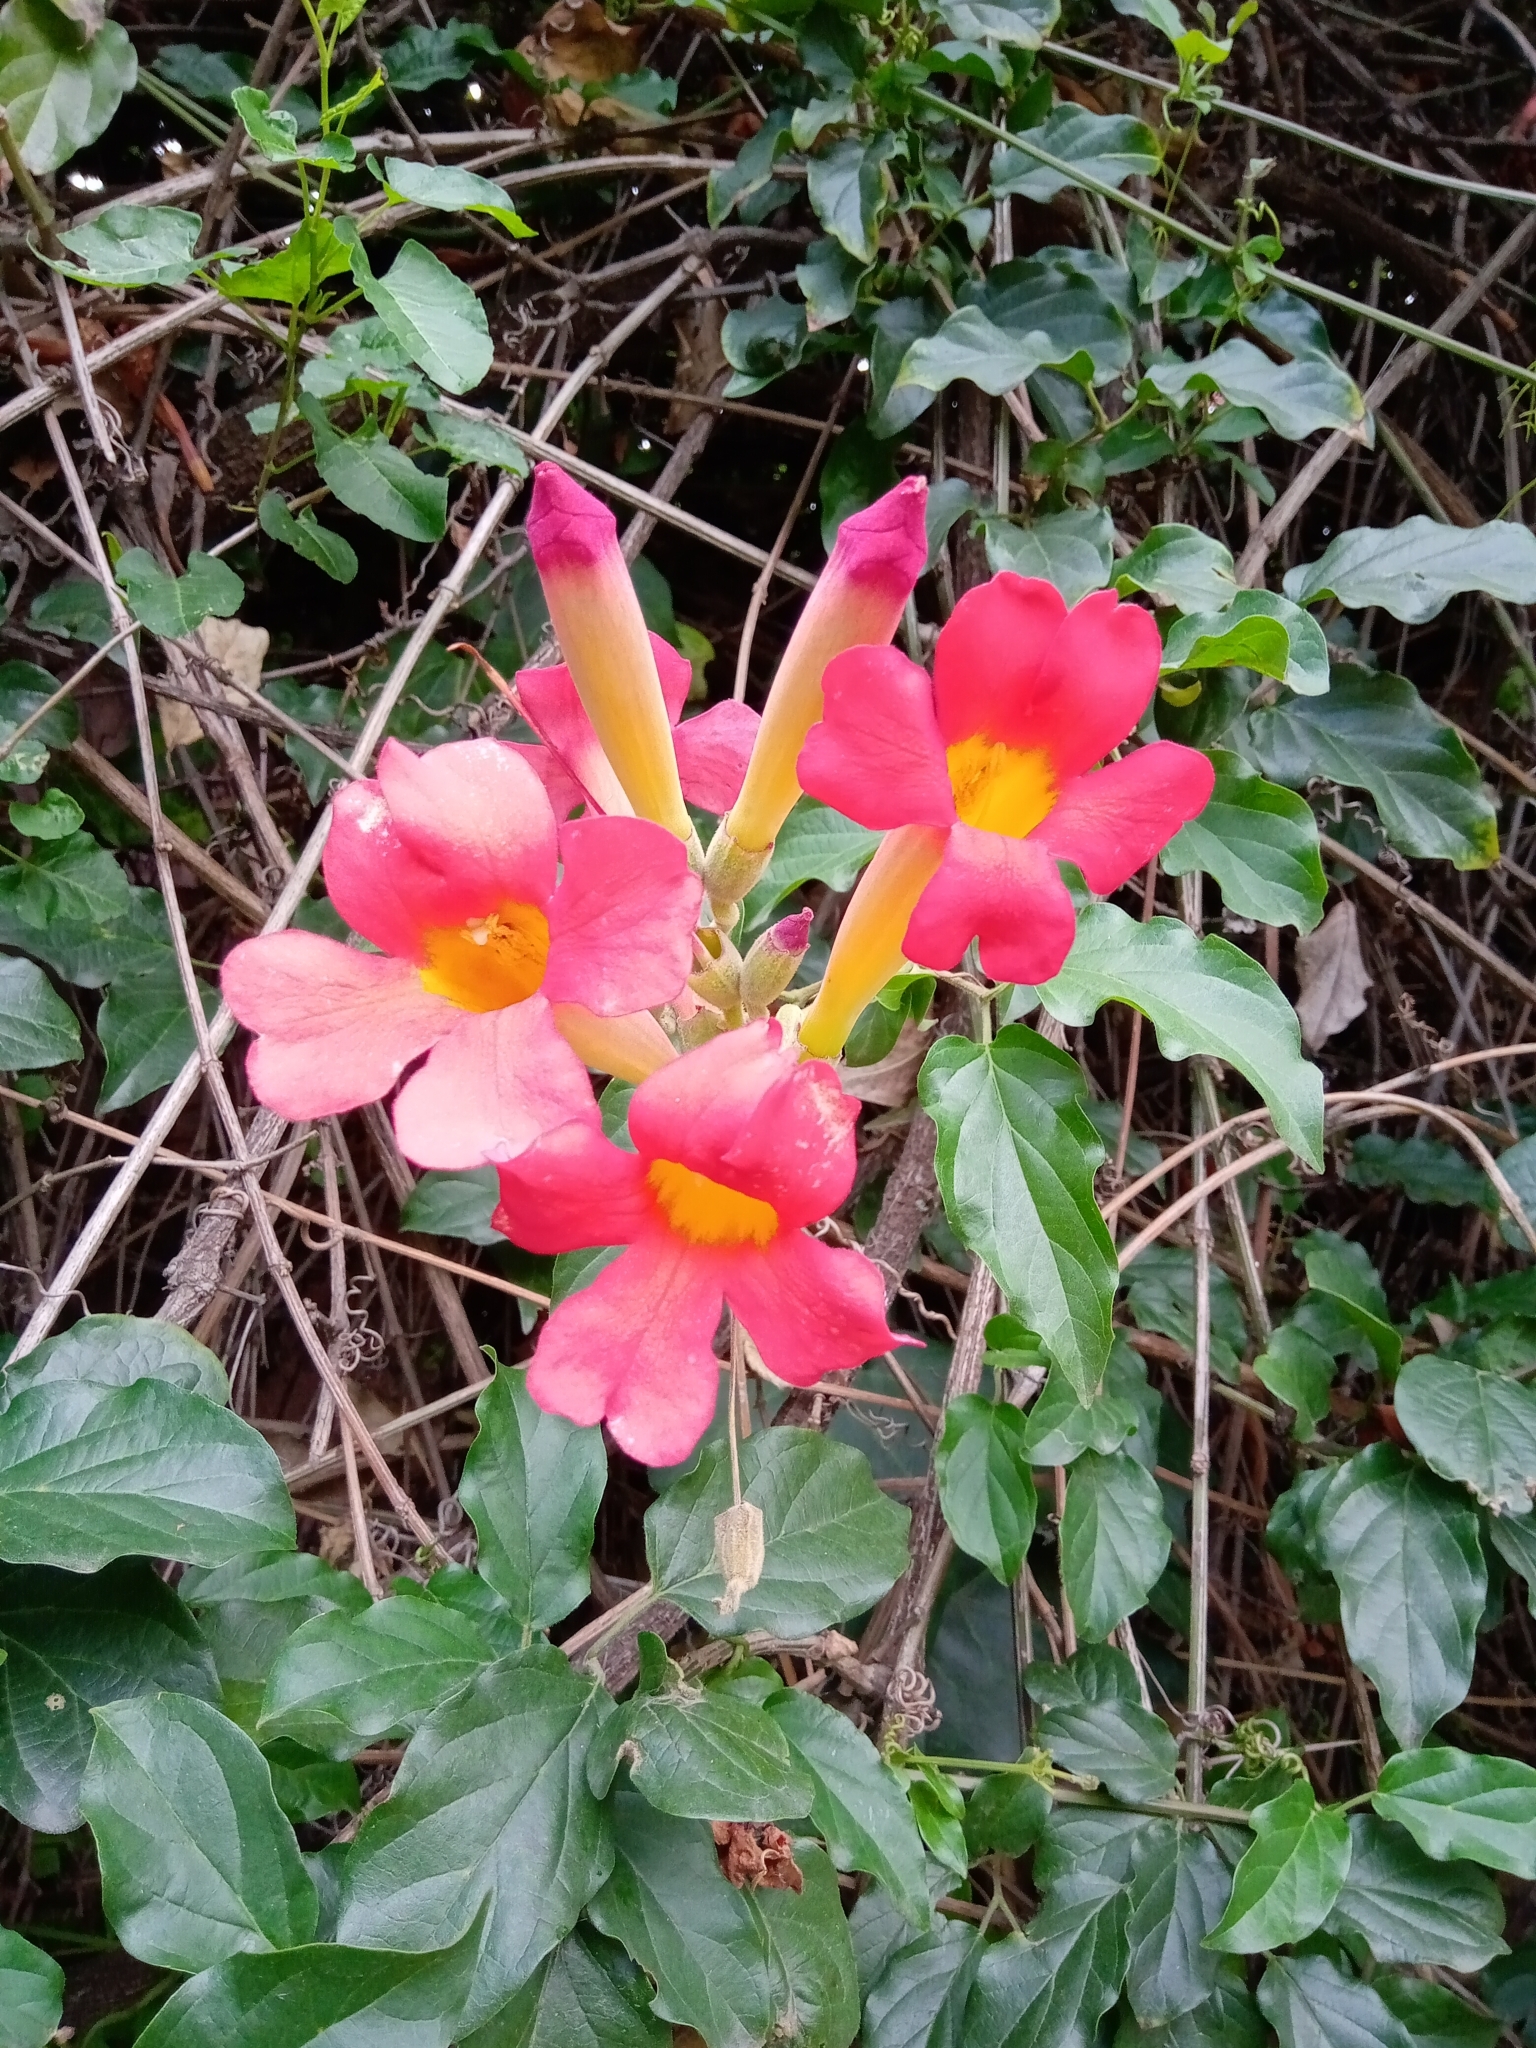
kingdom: Plantae
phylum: Tracheophyta
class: Magnoliopsida
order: Lamiales
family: Bignoniaceae
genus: Amphilophium
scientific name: Amphilophium buccinatorium
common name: Mexican blood-flower
